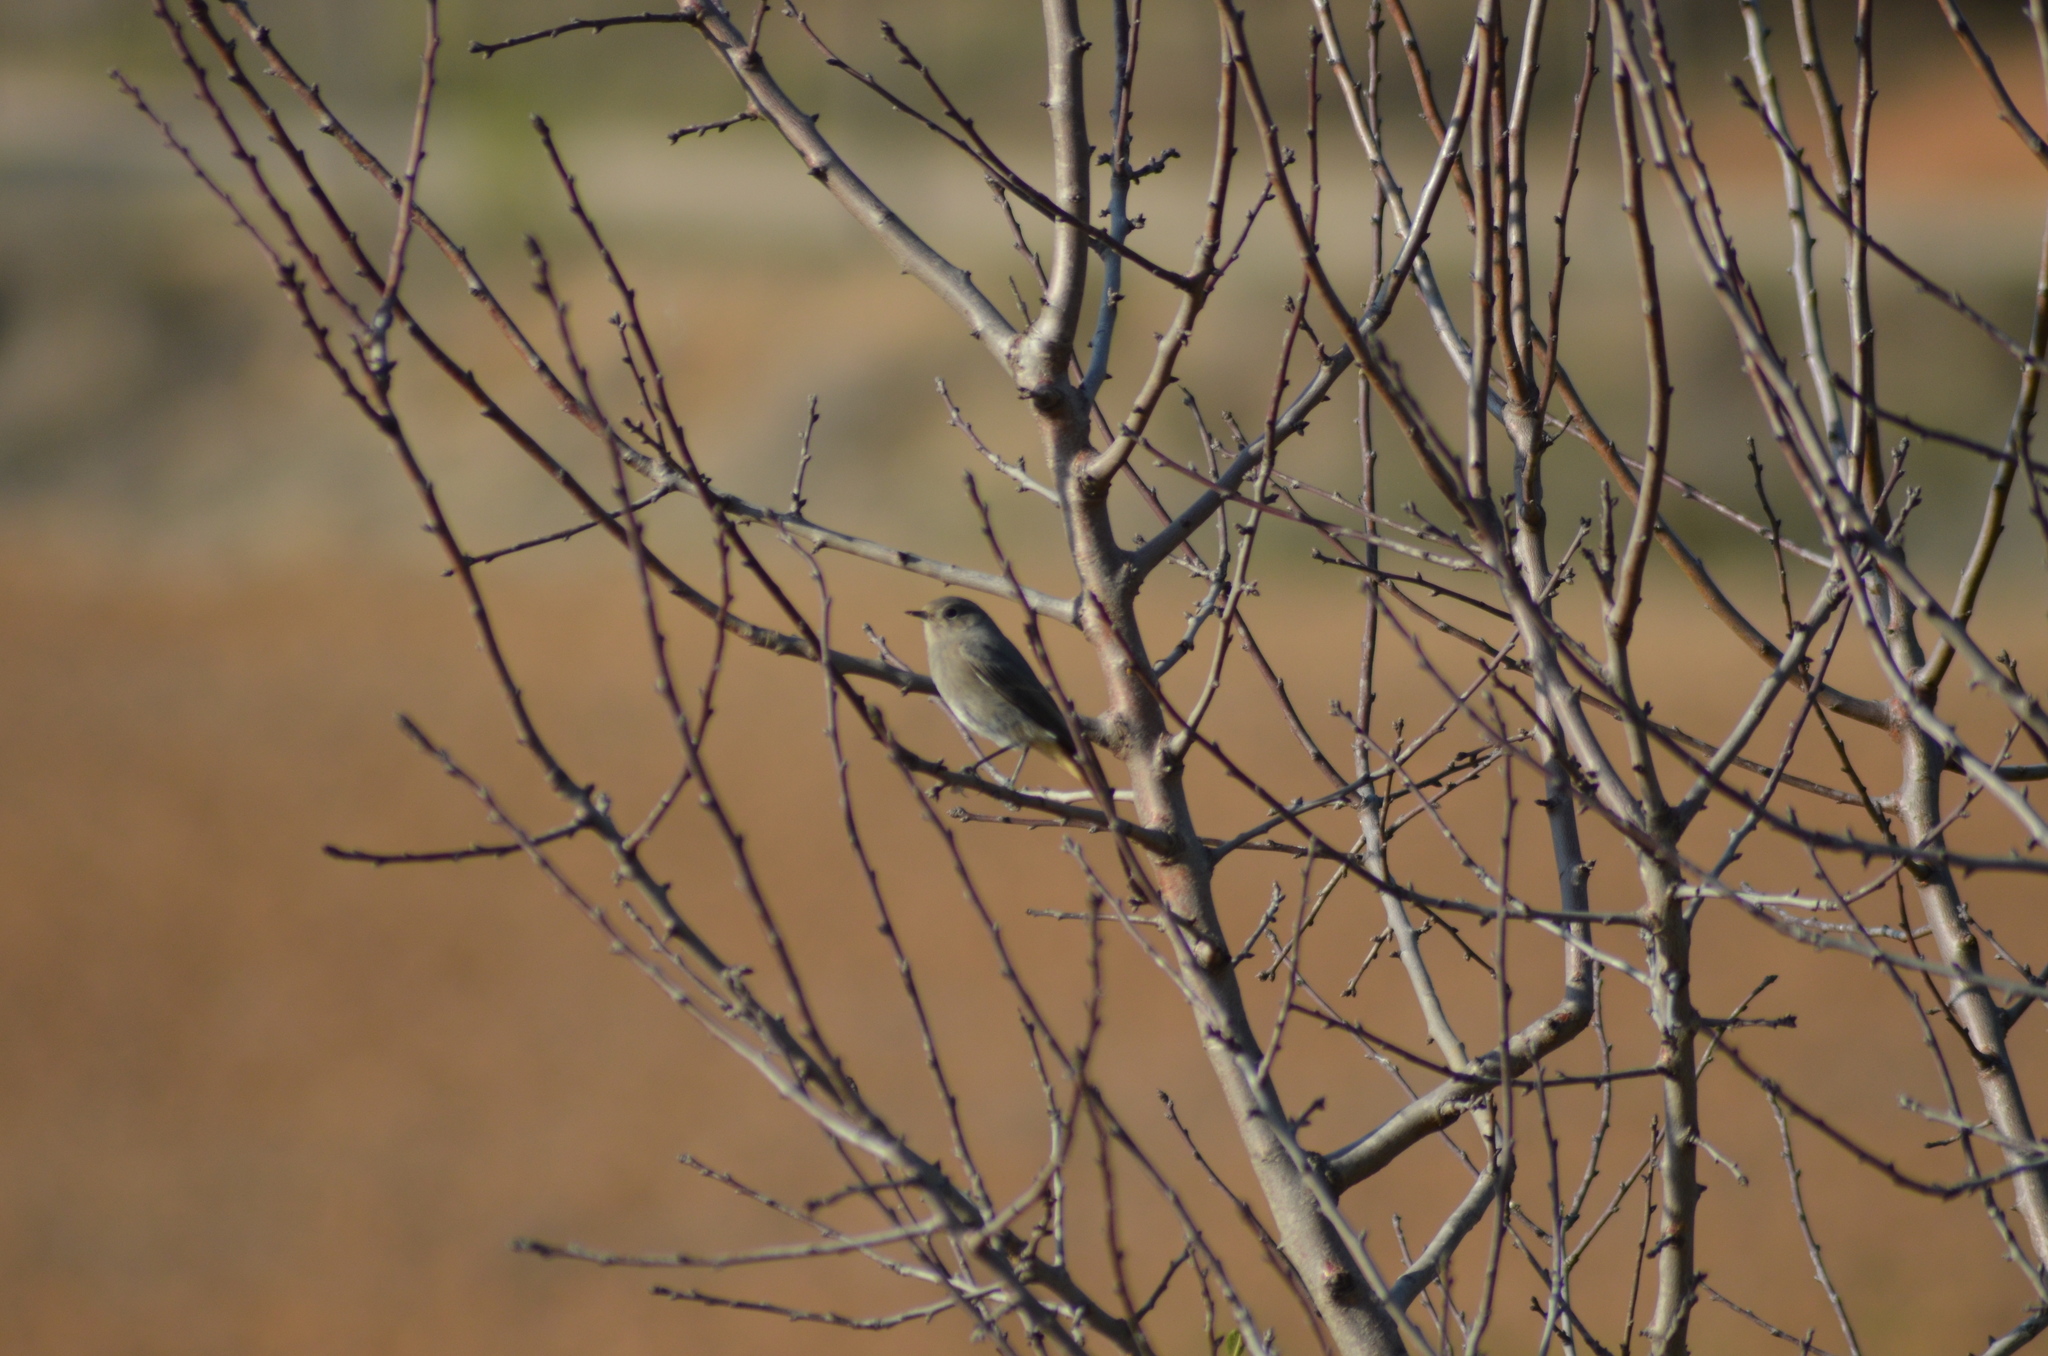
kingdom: Animalia
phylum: Chordata
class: Aves
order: Passeriformes
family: Muscicapidae
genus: Phoenicurus
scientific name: Phoenicurus ochruros
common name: Black redstart
